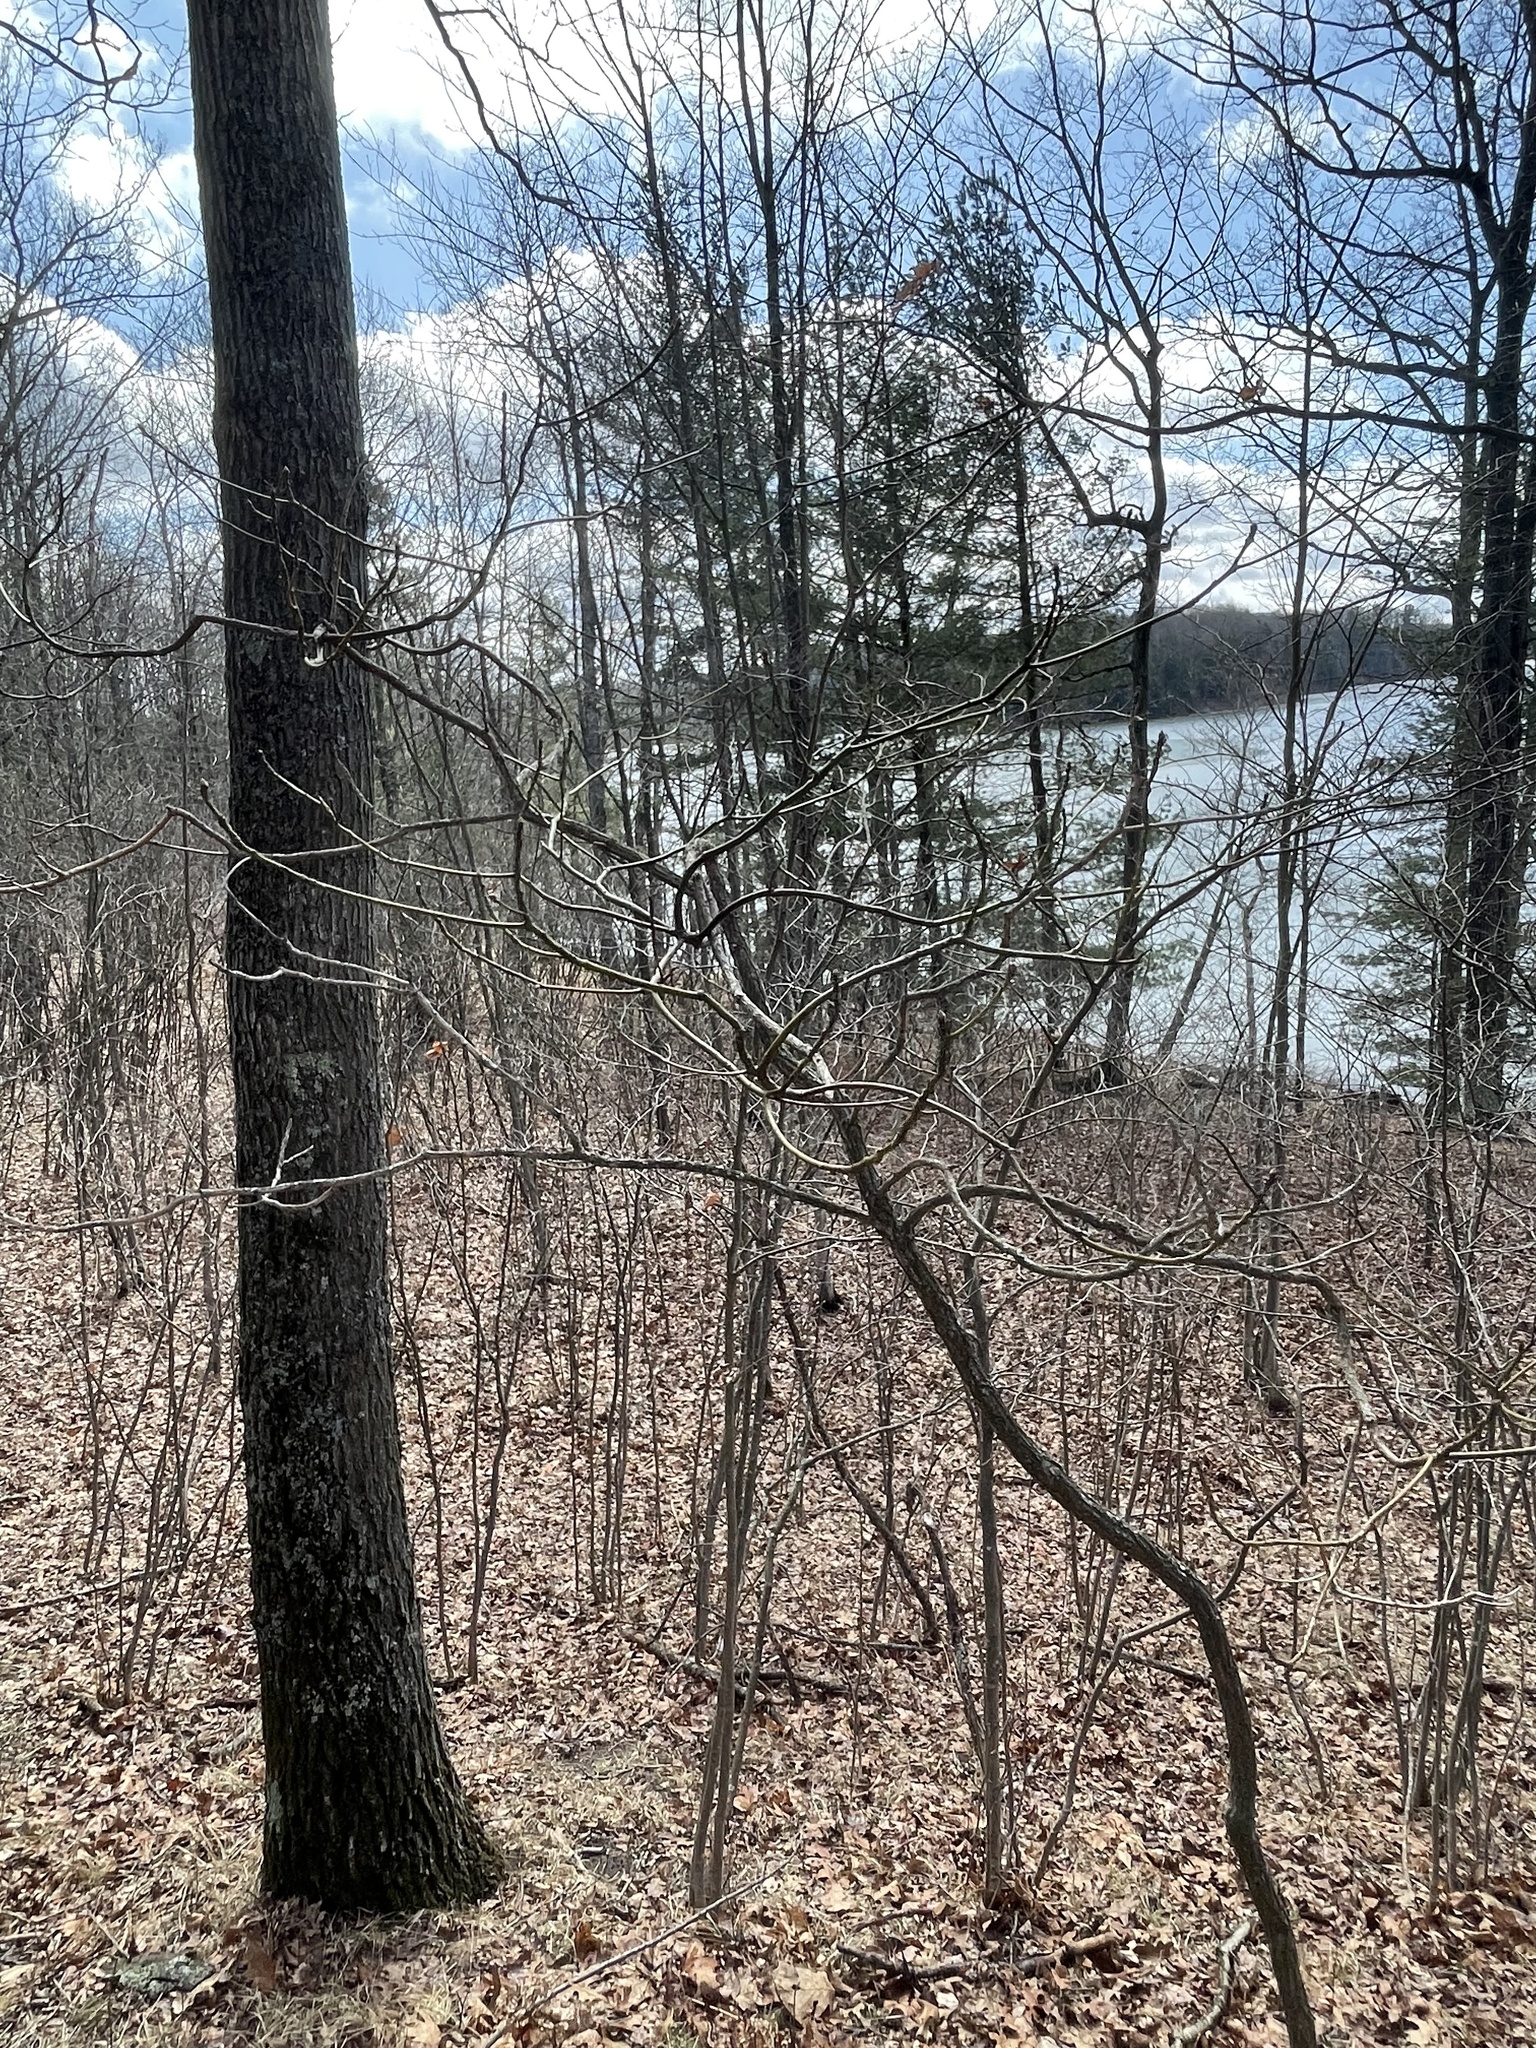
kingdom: Plantae
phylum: Tracheophyta
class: Magnoliopsida
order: Laurales
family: Lauraceae
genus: Sassafras
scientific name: Sassafras albidum
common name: Sassafras
